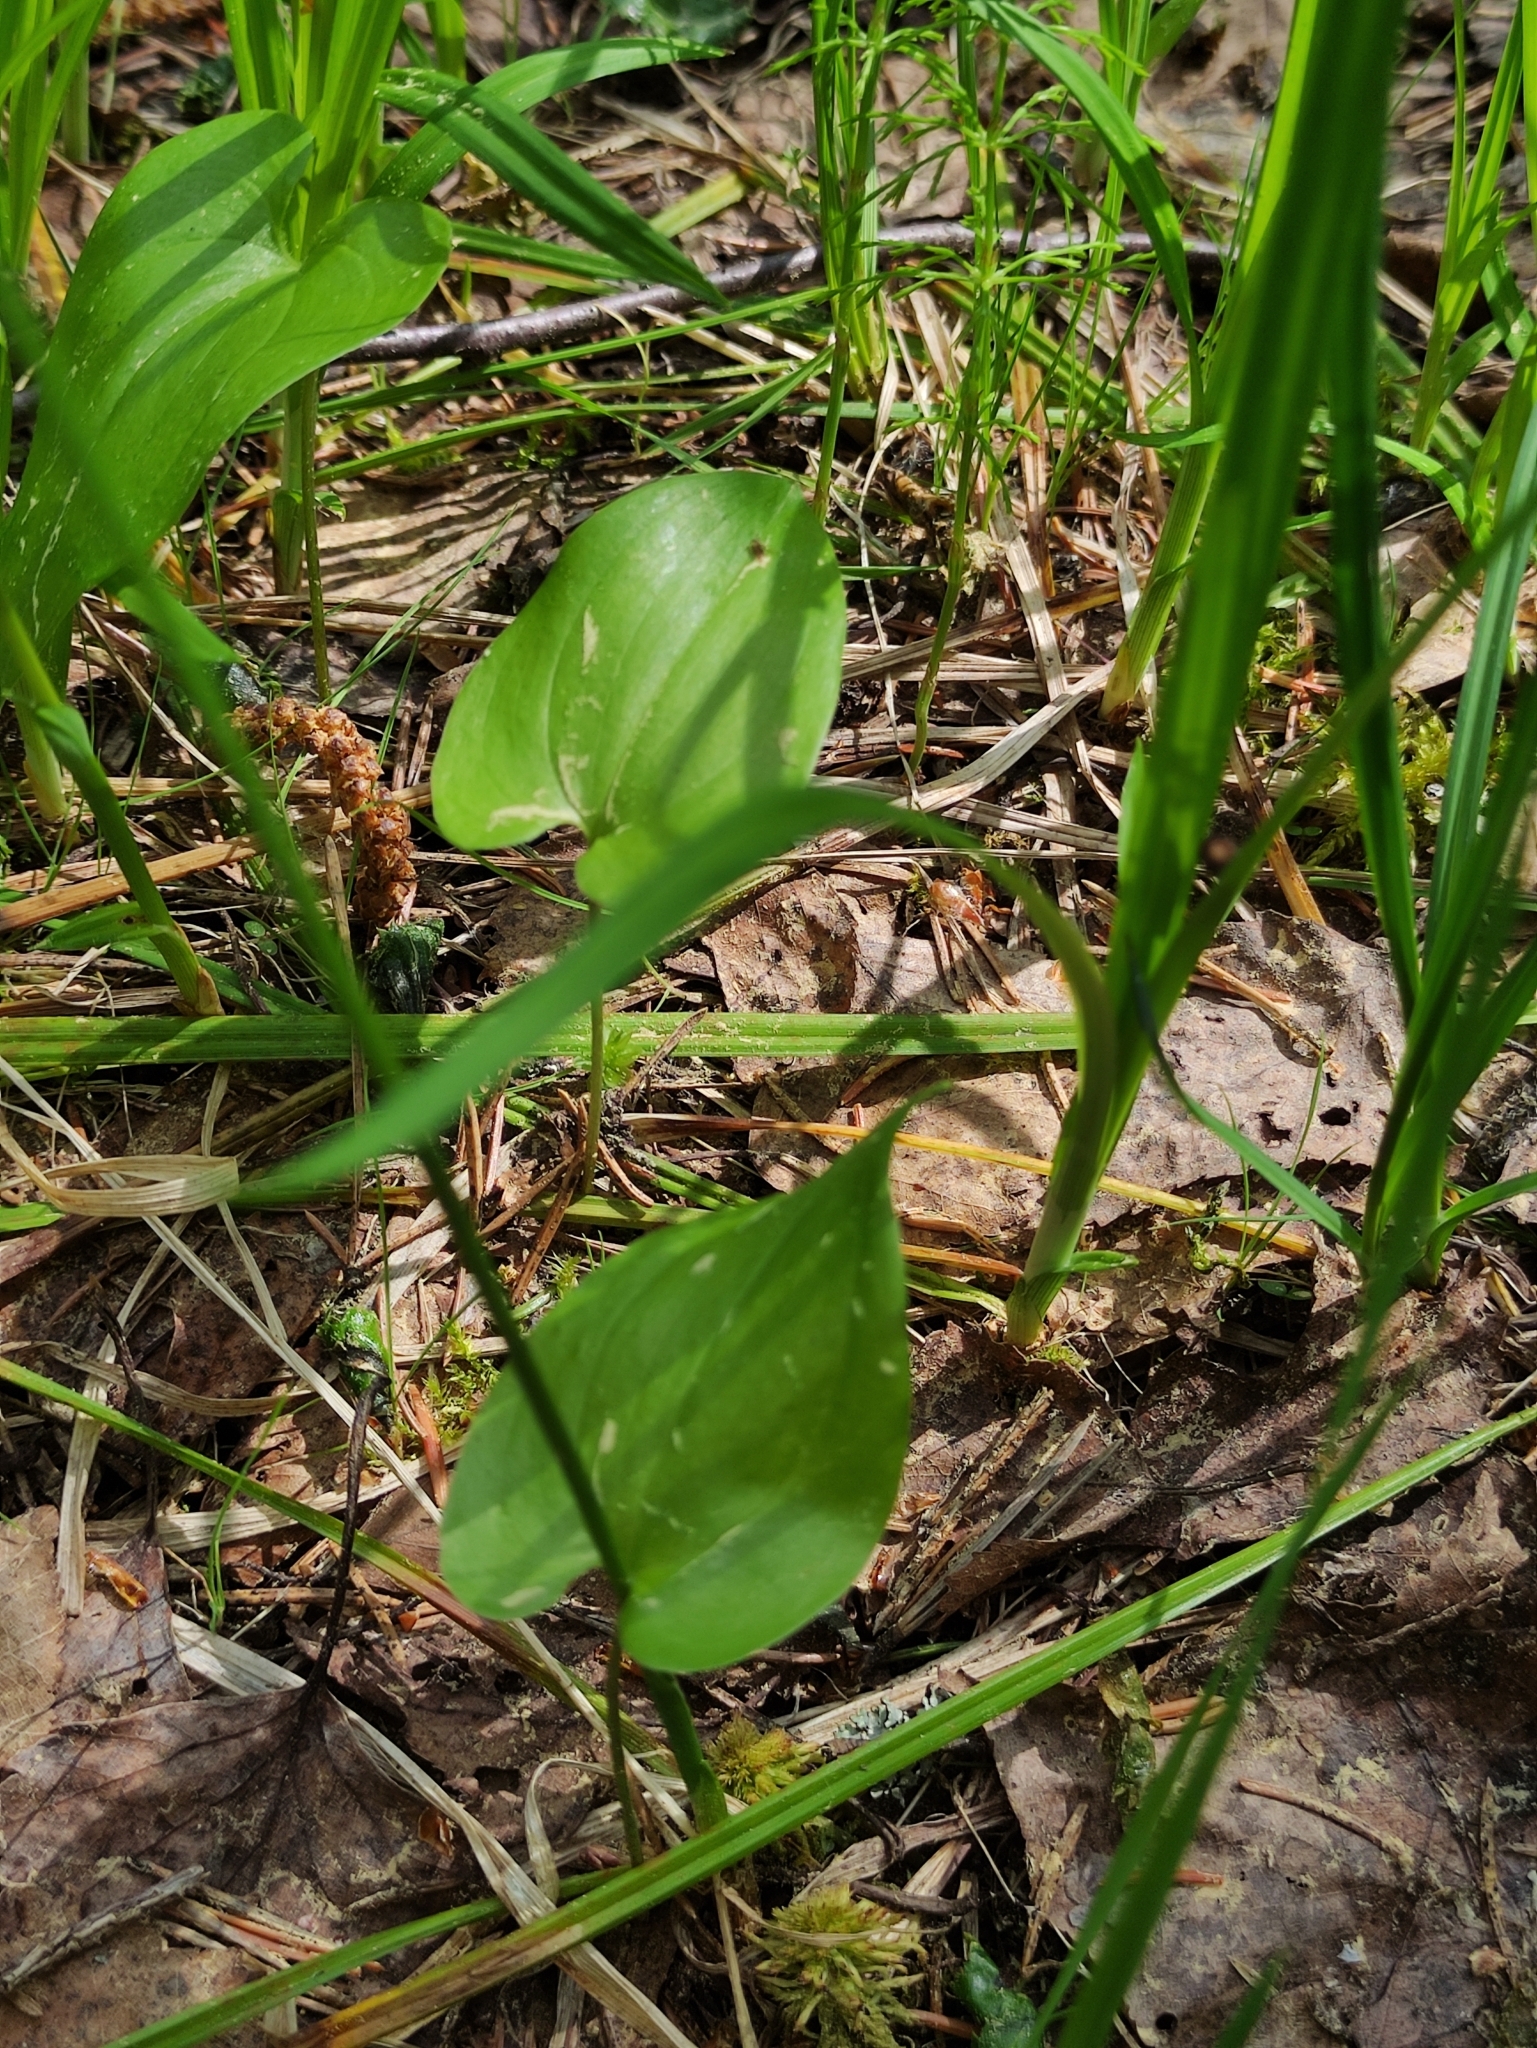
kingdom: Plantae
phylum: Tracheophyta
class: Liliopsida
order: Asparagales
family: Asparagaceae
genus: Maianthemum
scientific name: Maianthemum bifolium
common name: May lily
